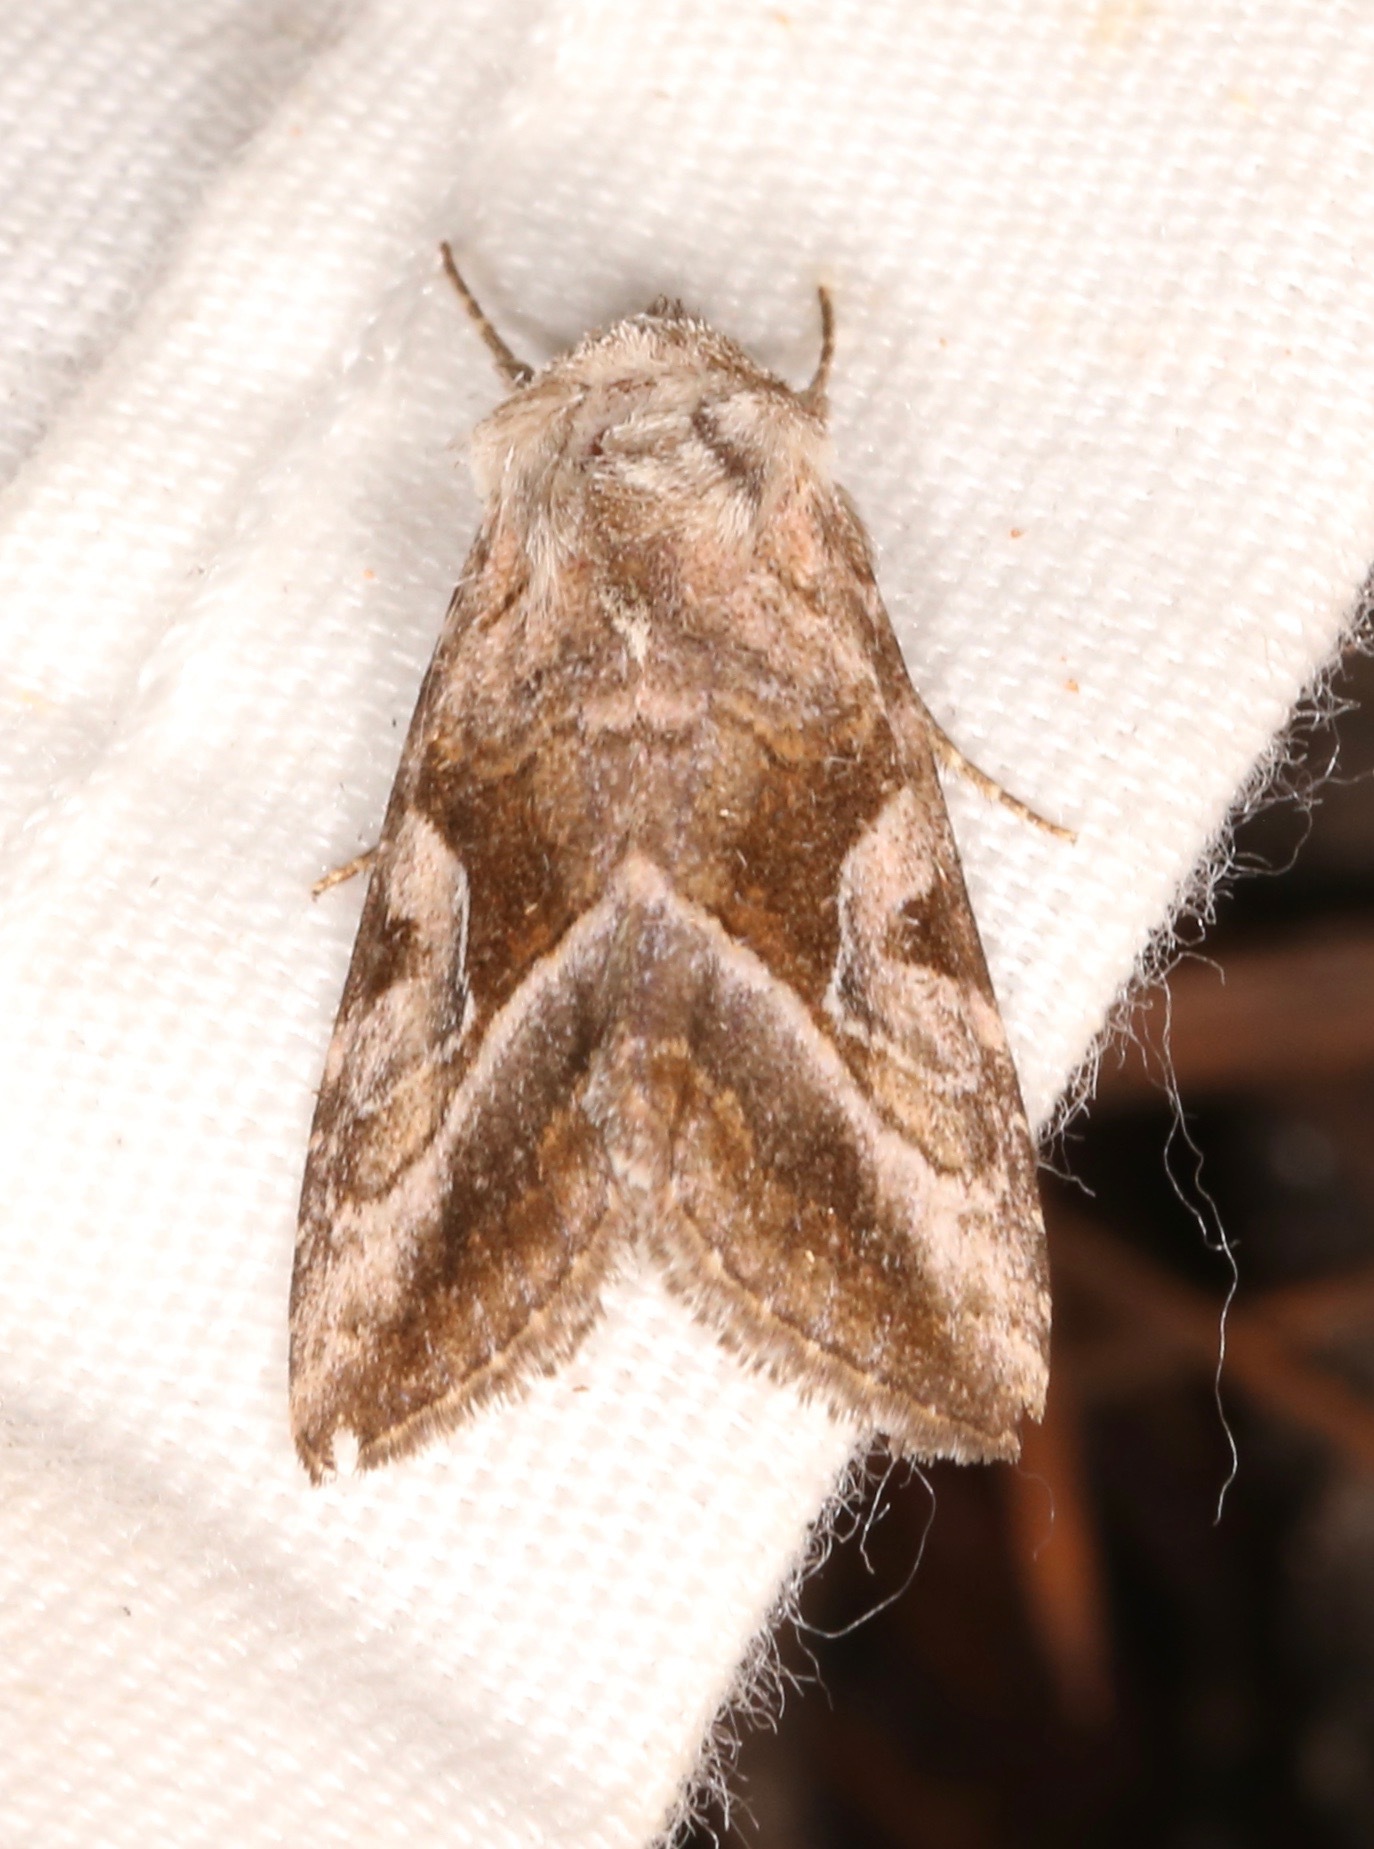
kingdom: Animalia
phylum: Arthropoda
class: Insecta
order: Lepidoptera
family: Noctuidae
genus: Hexorthodes
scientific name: Hexorthodes accurata
